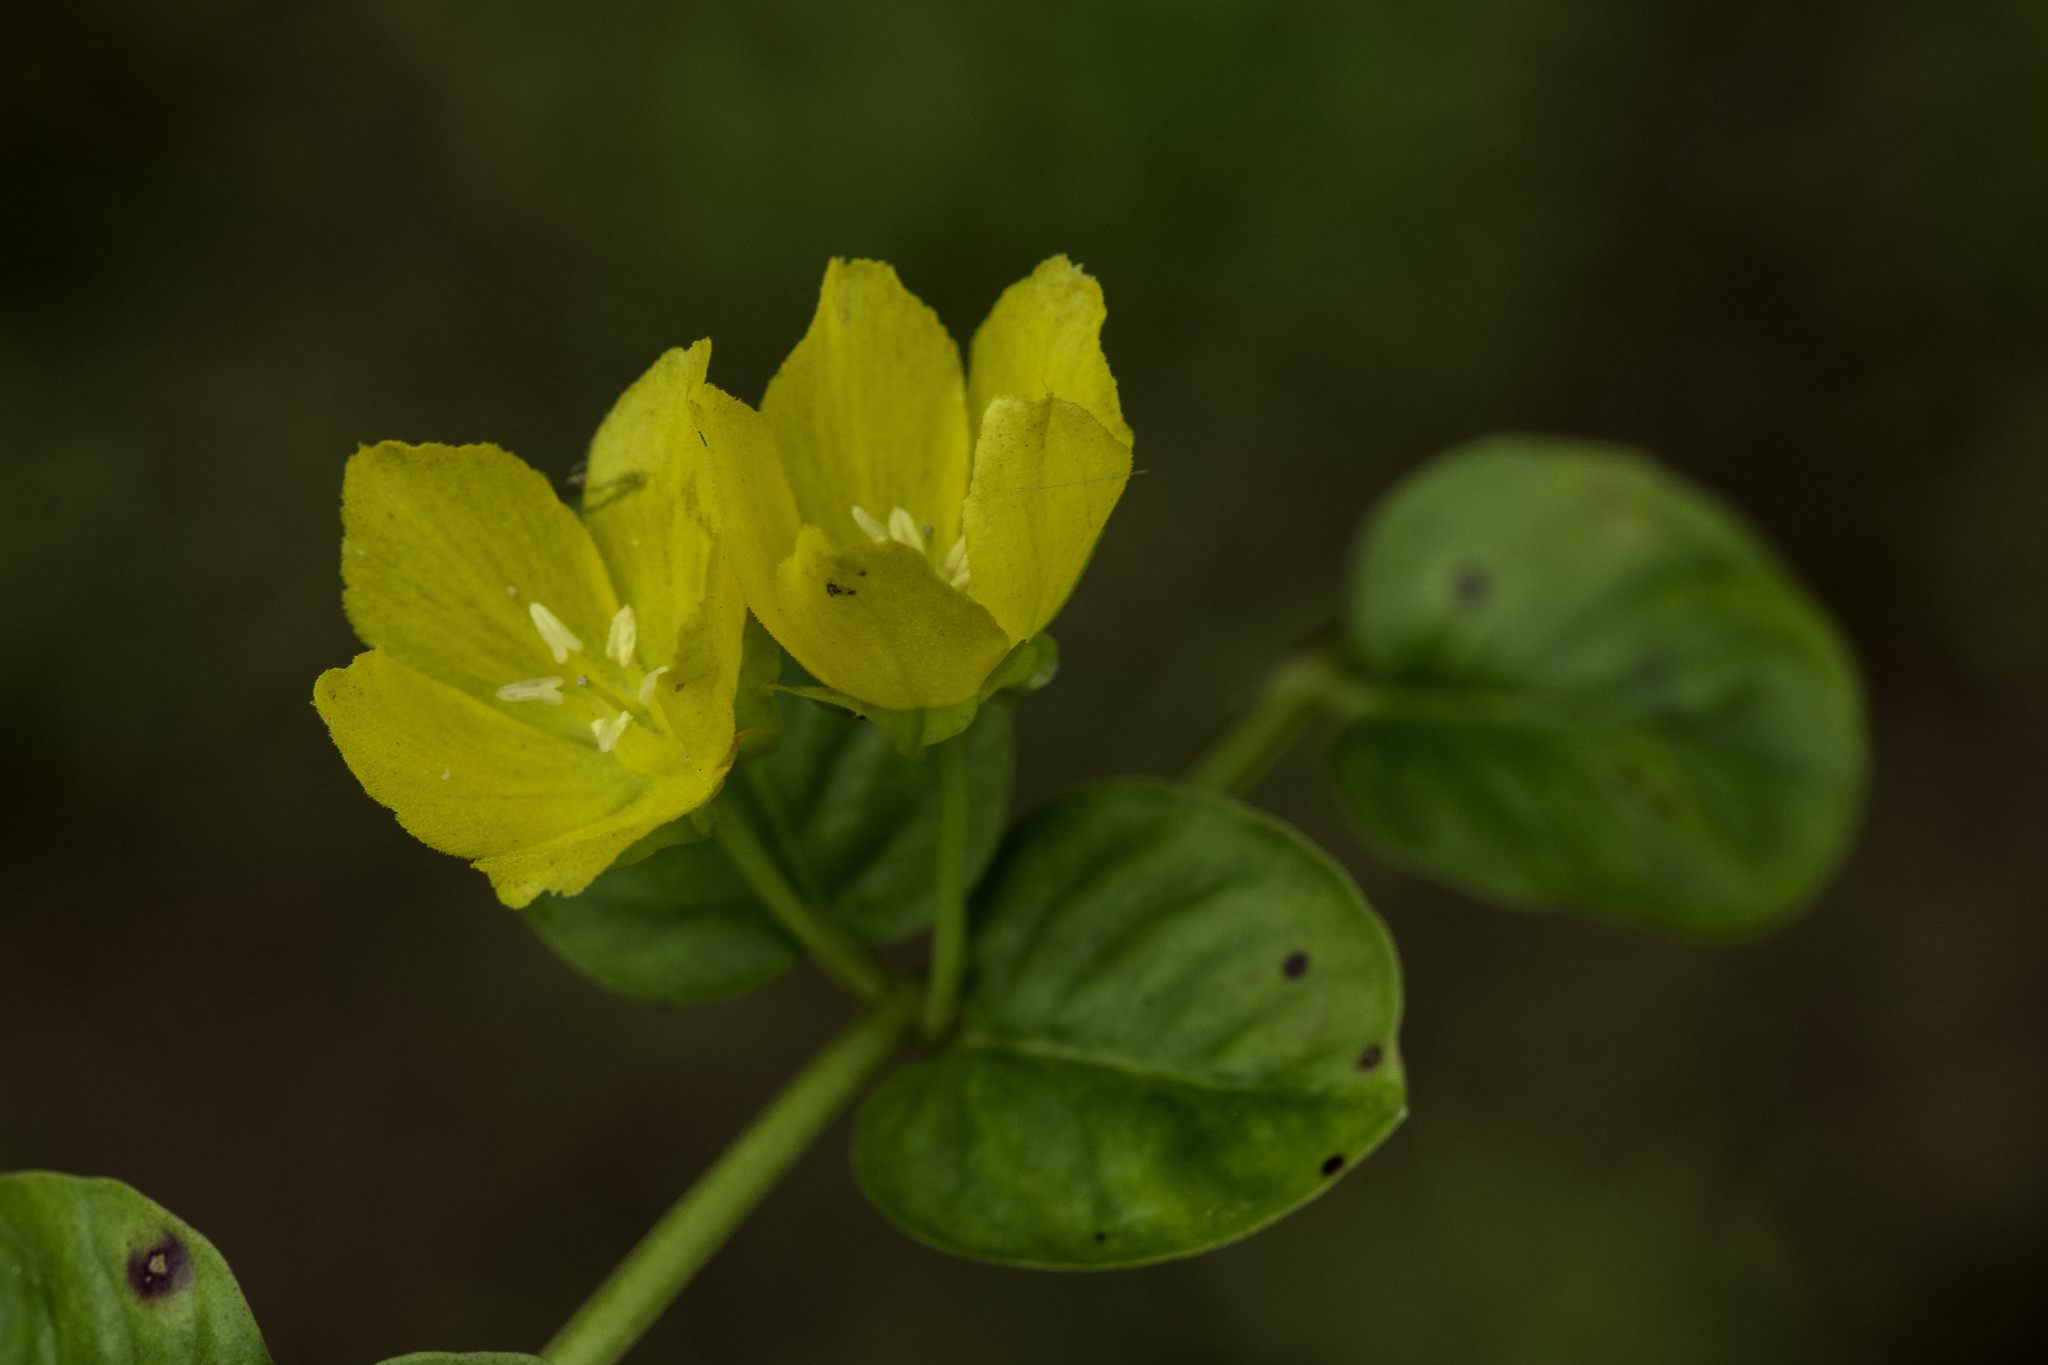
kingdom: Plantae
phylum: Tracheophyta
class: Magnoliopsida
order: Ericales
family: Primulaceae
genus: Lysimachia
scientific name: Lysimachia nummularia
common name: Moneywort
